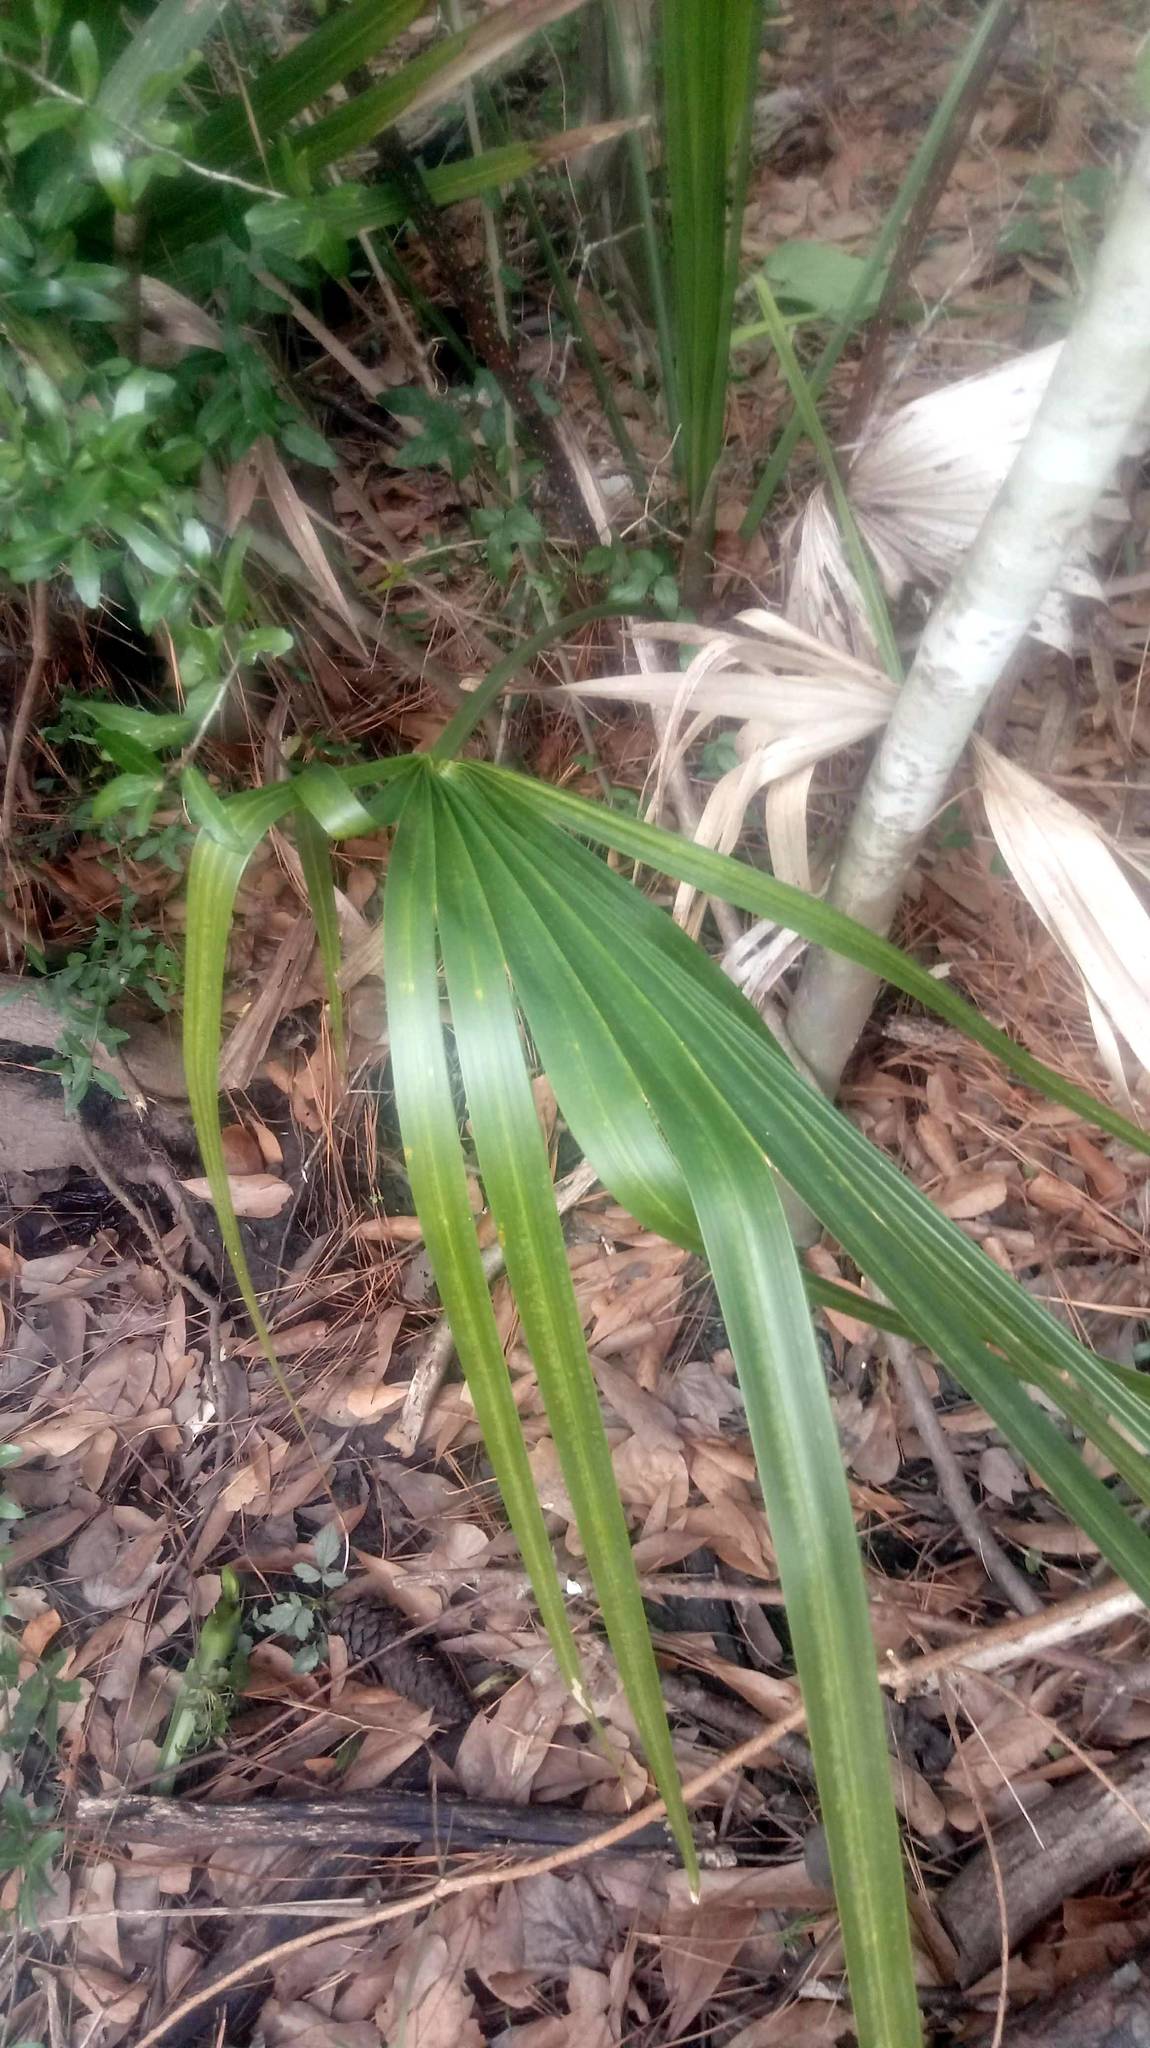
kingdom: Plantae
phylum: Tracheophyta
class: Liliopsida
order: Arecales
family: Arecaceae
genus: Sabal
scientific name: Sabal minor
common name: Dwarf palmetto
